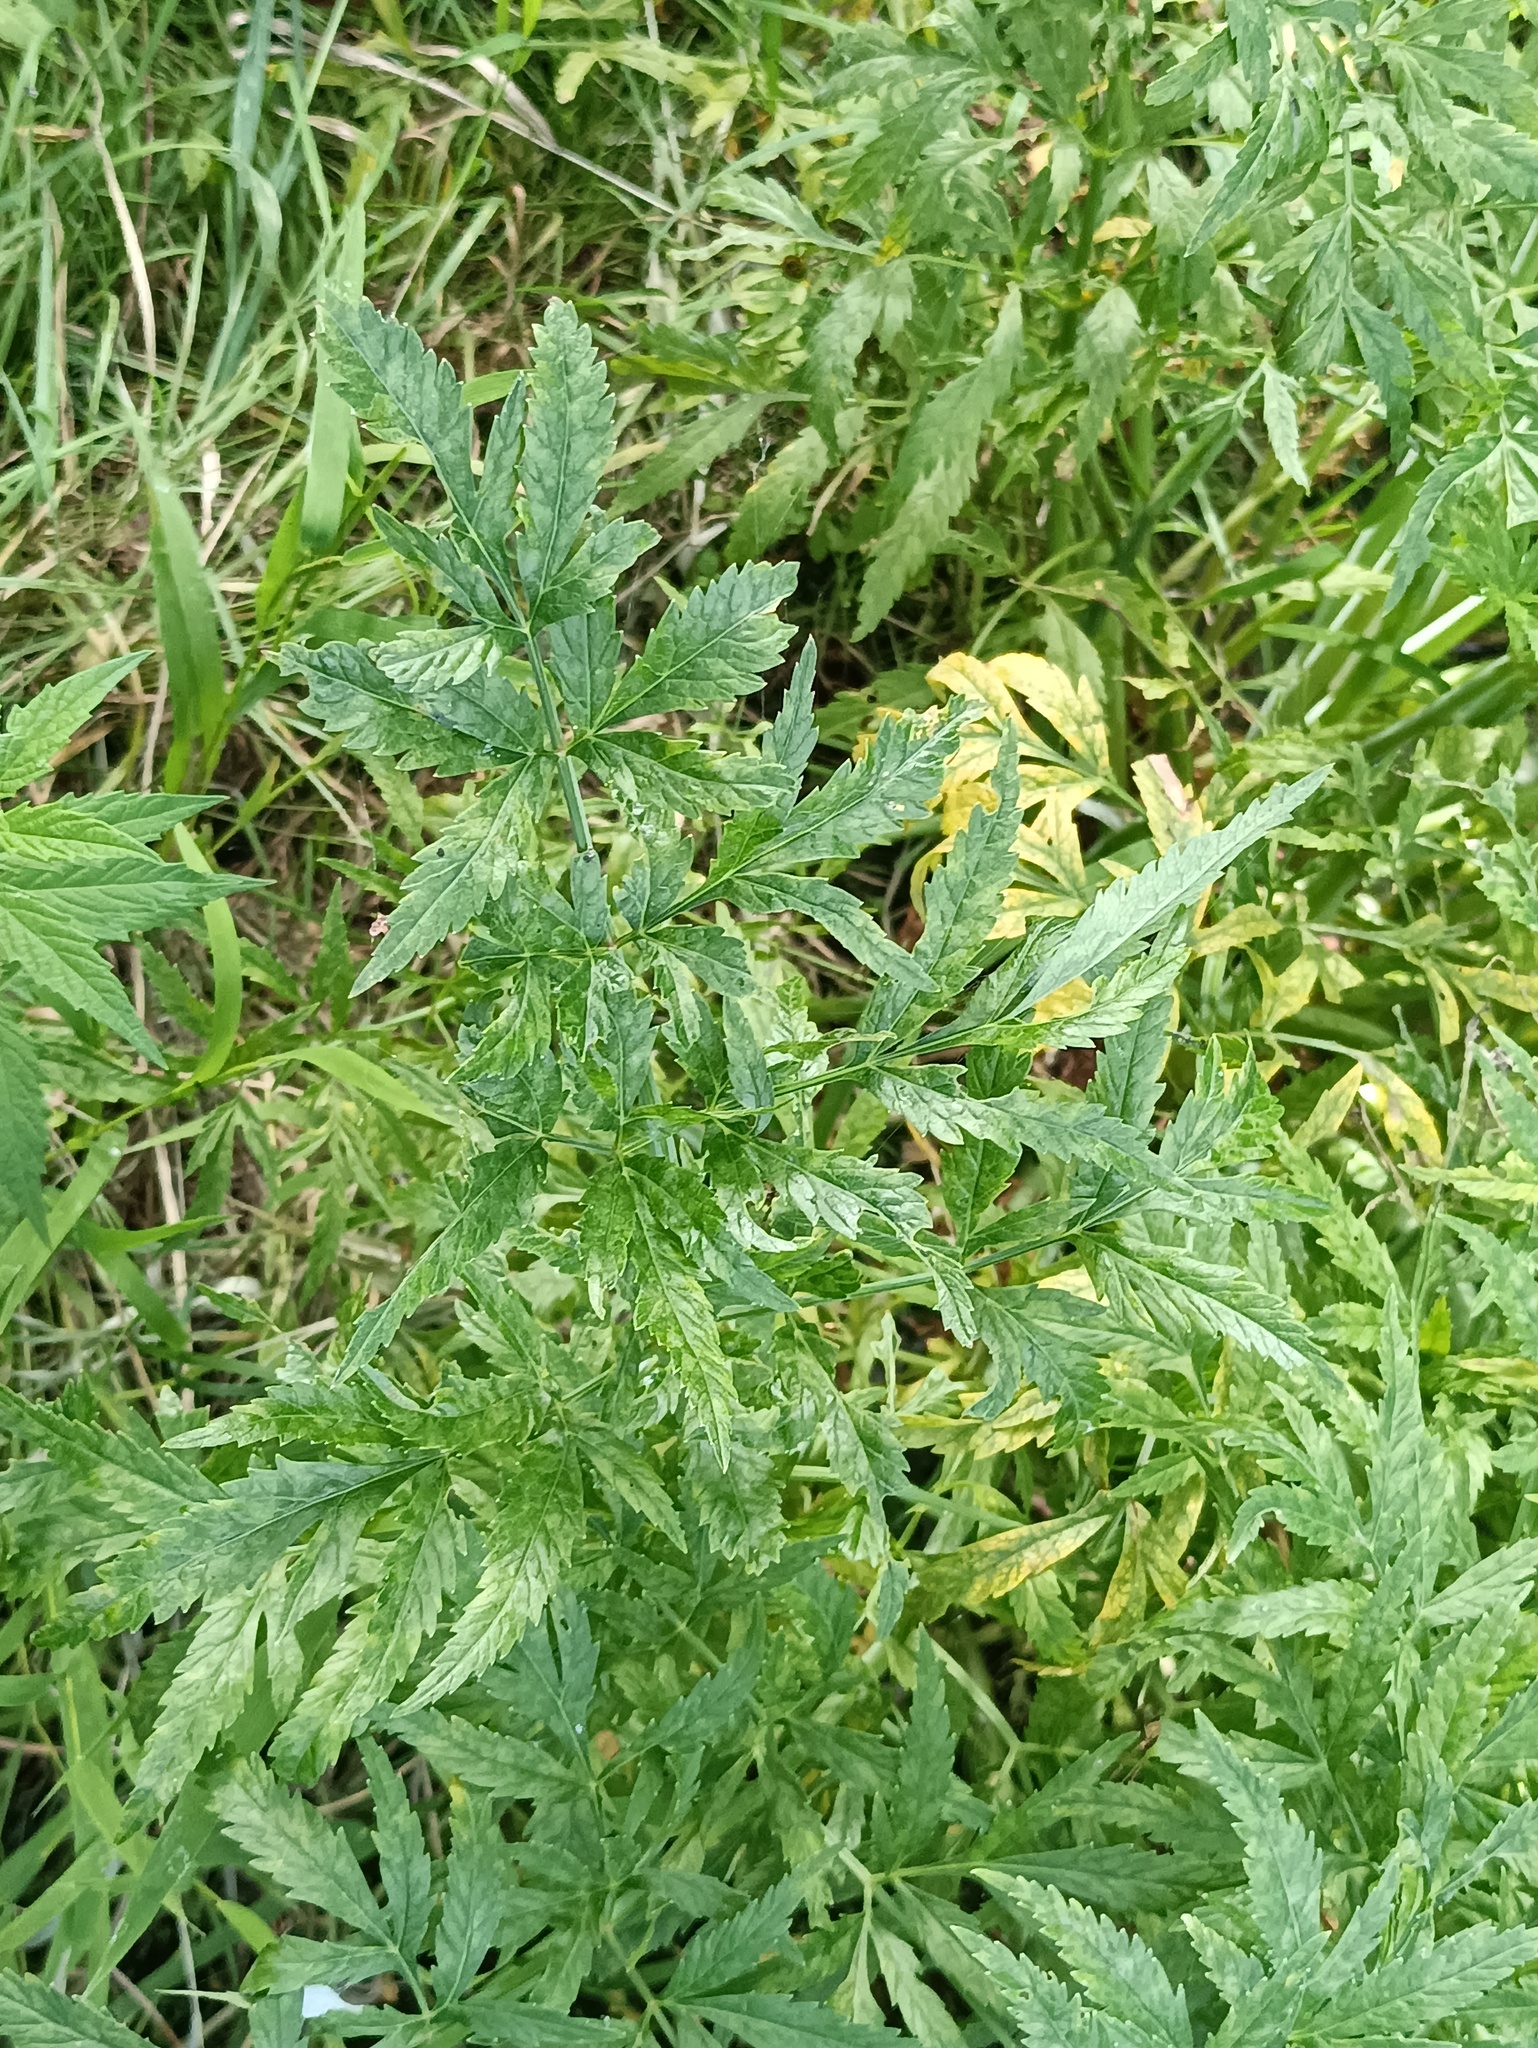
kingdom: Plantae
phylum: Tracheophyta
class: Magnoliopsida
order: Apiales
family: Apiaceae
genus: Cicuta
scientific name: Cicuta virosa
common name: Cowbane
